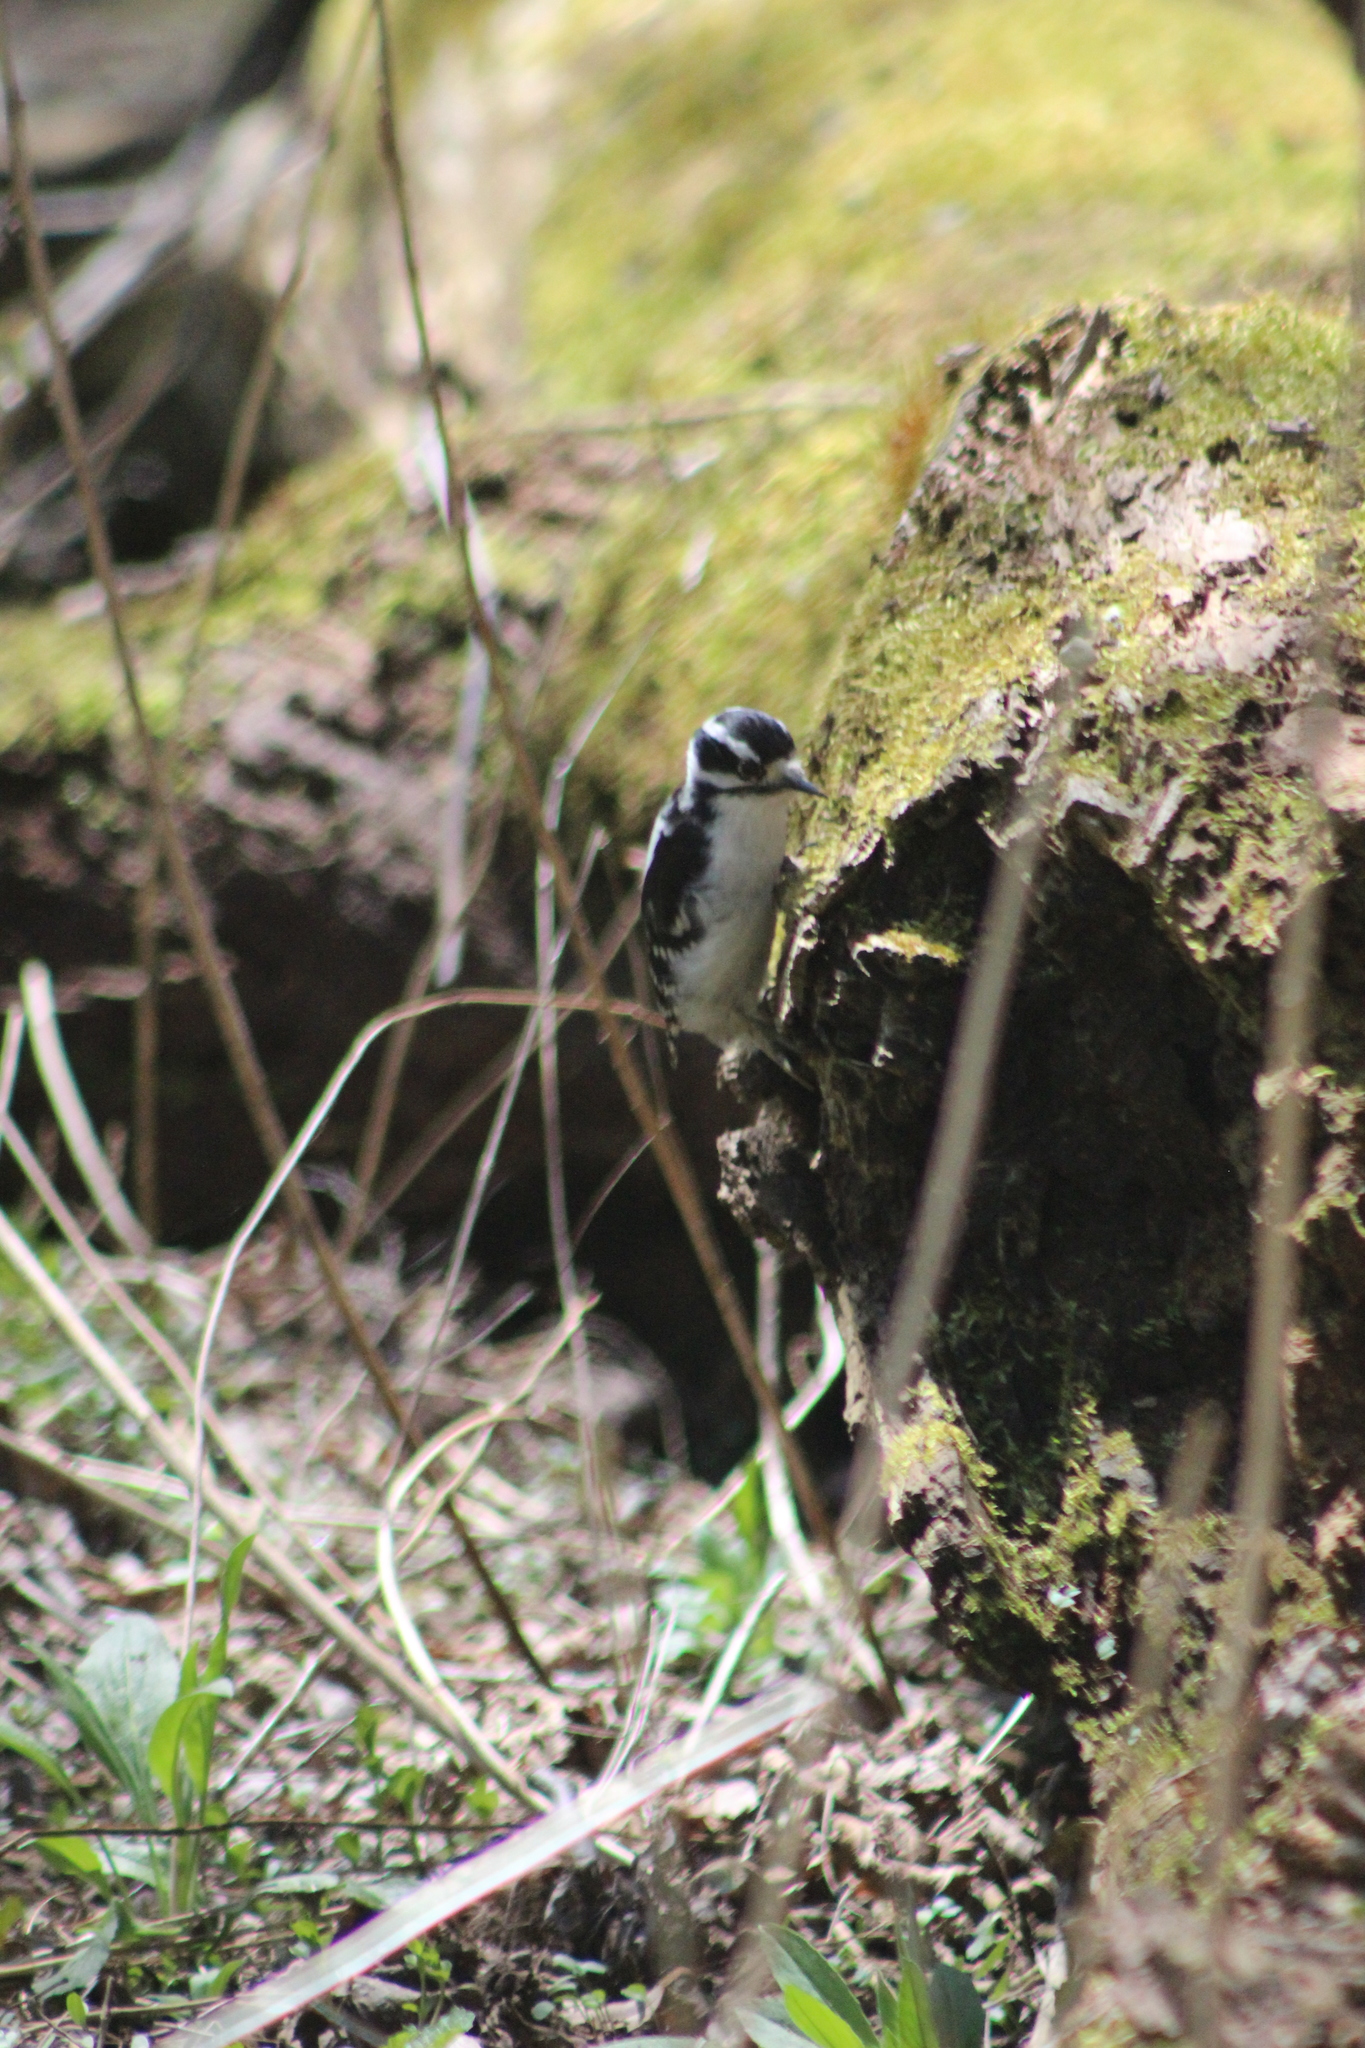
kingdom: Animalia
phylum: Chordata
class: Aves
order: Piciformes
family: Picidae
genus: Dryobates
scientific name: Dryobates pubescens
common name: Downy woodpecker
